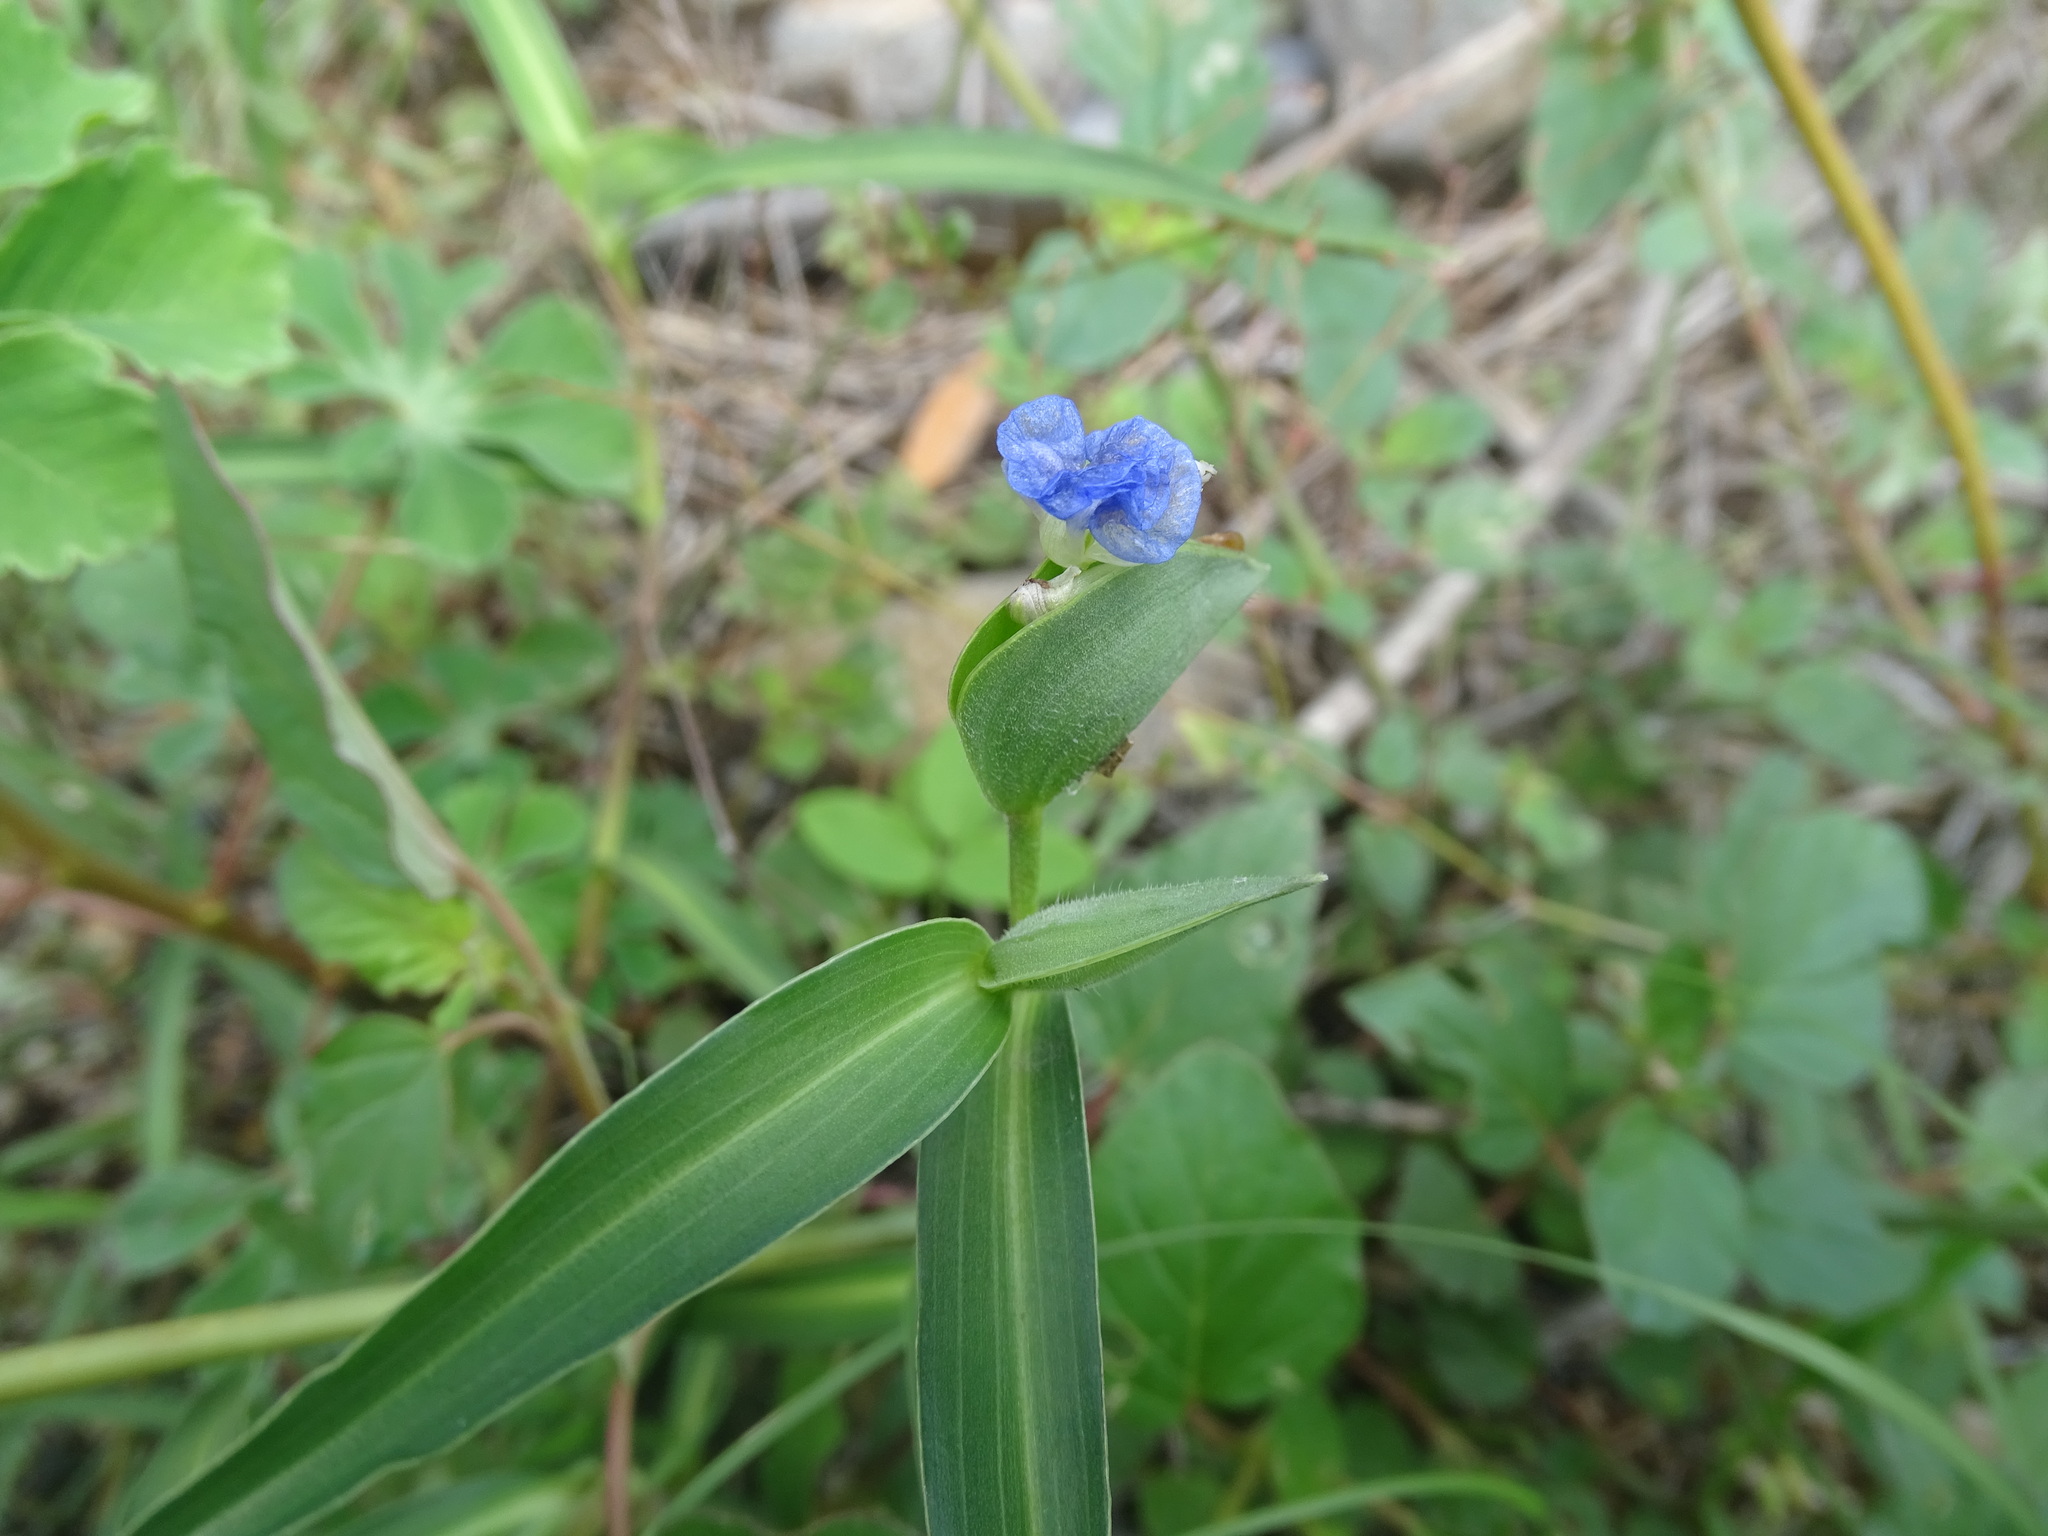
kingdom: Plantae
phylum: Tracheophyta
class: Liliopsida
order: Commelinales
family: Commelinaceae
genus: Commelina
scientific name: Commelina diffusa
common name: Climbing dayflower
